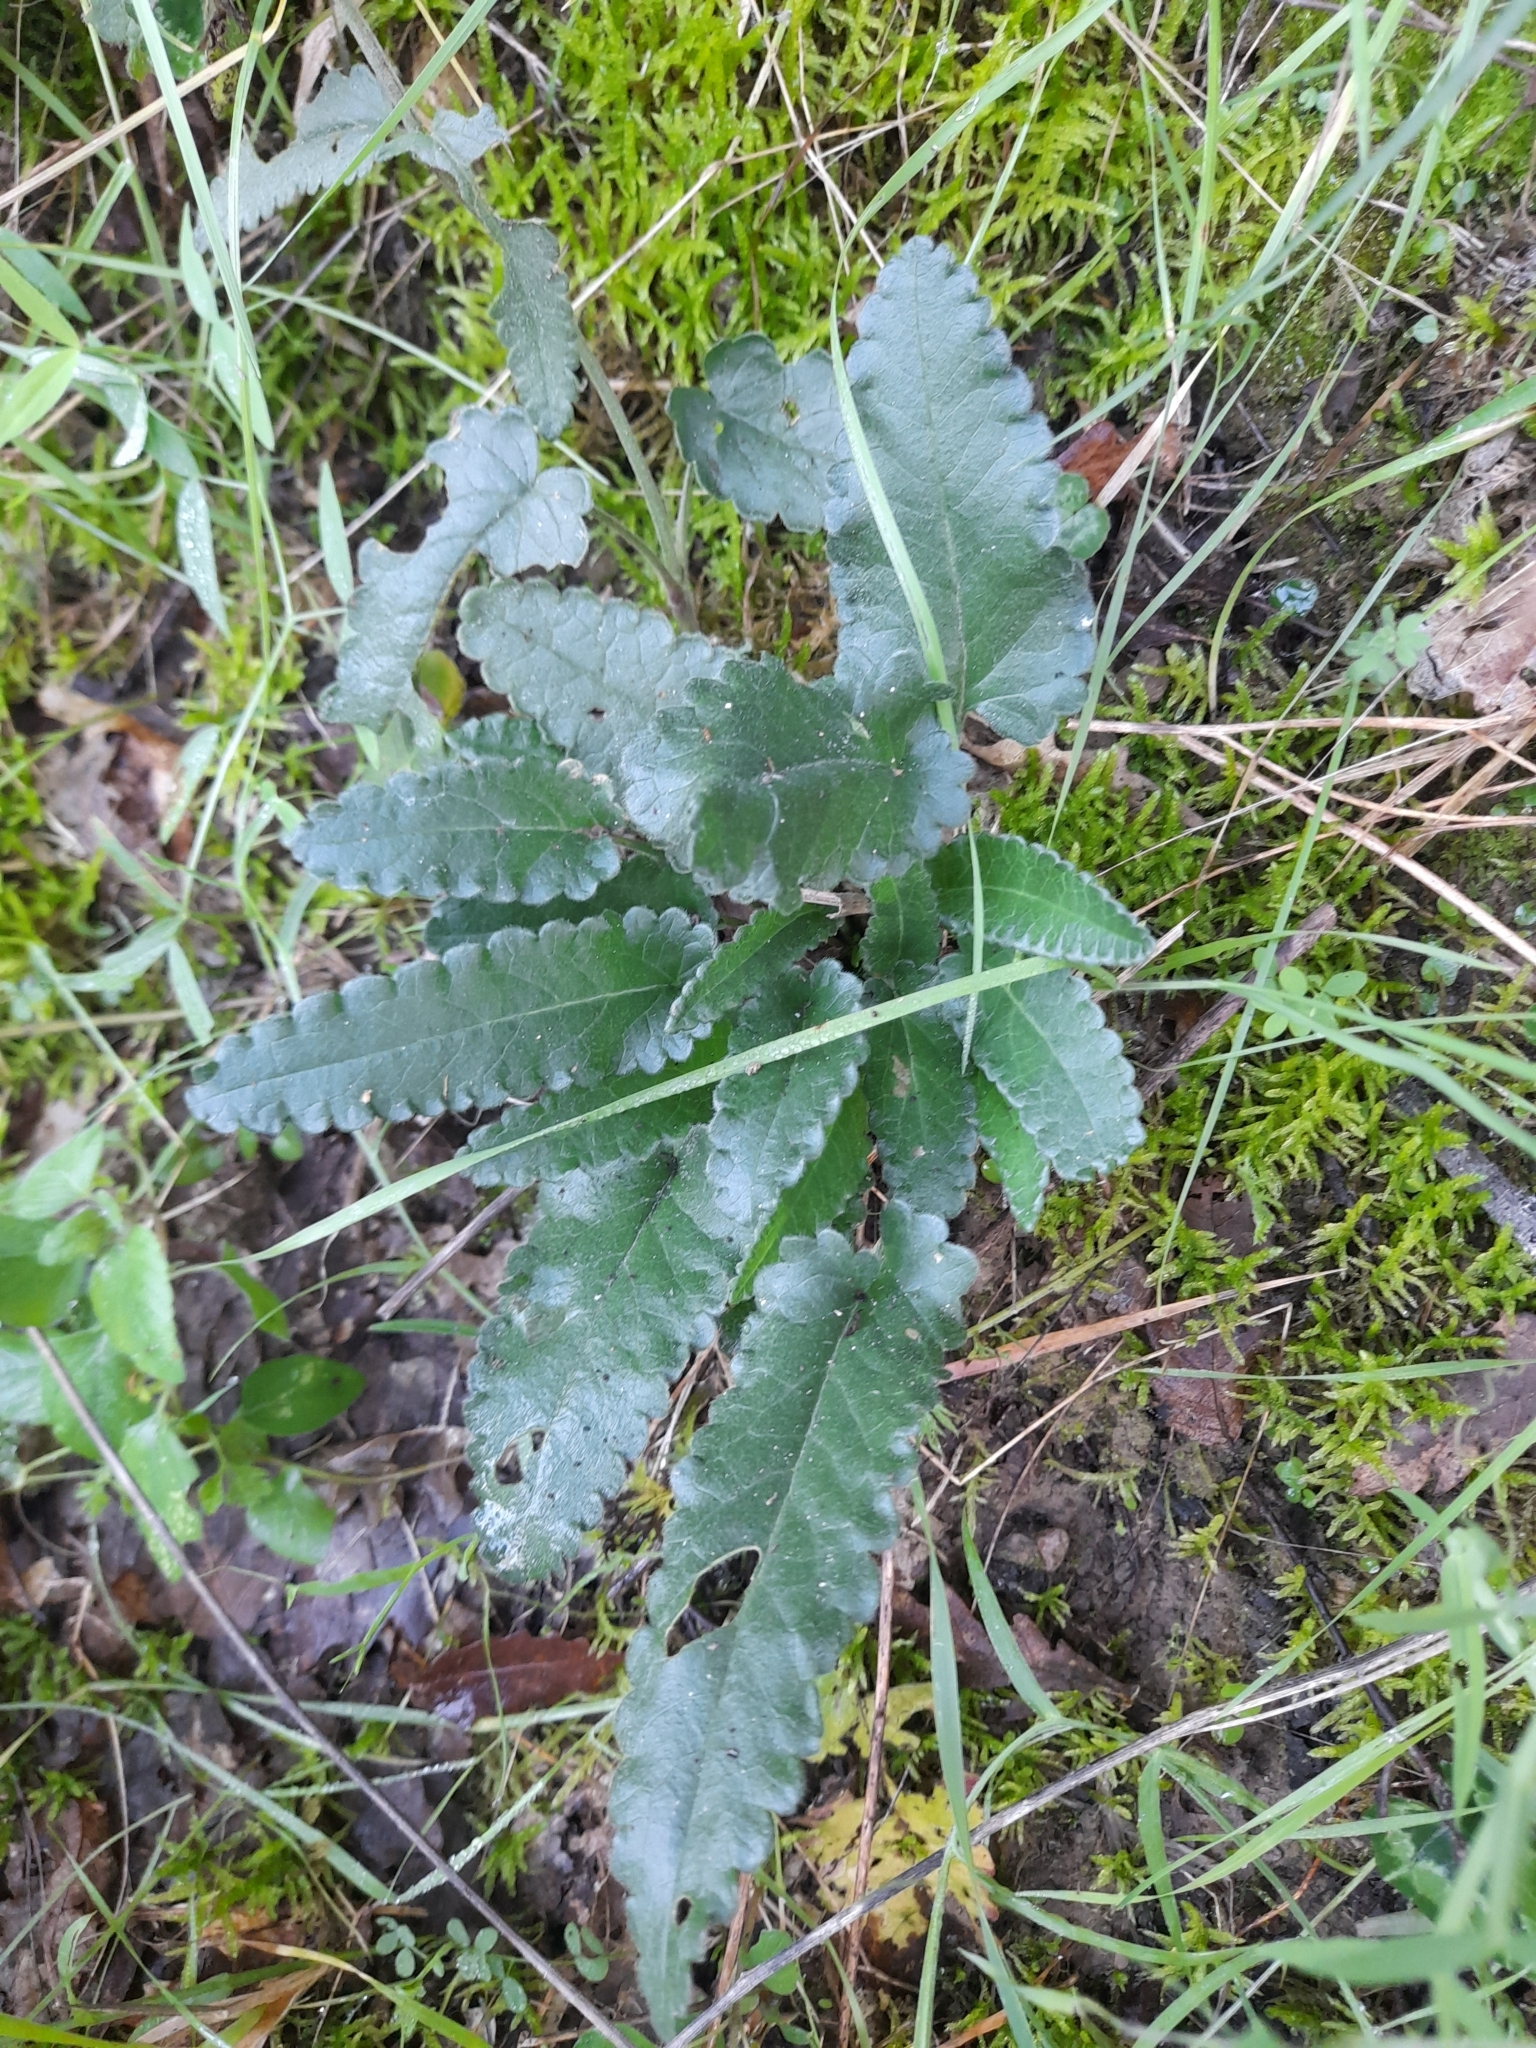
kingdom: Plantae
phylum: Tracheophyta
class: Magnoliopsida
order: Lamiales
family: Lamiaceae
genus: Betonica
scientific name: Betonica officinalis
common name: Bishop's-wort
